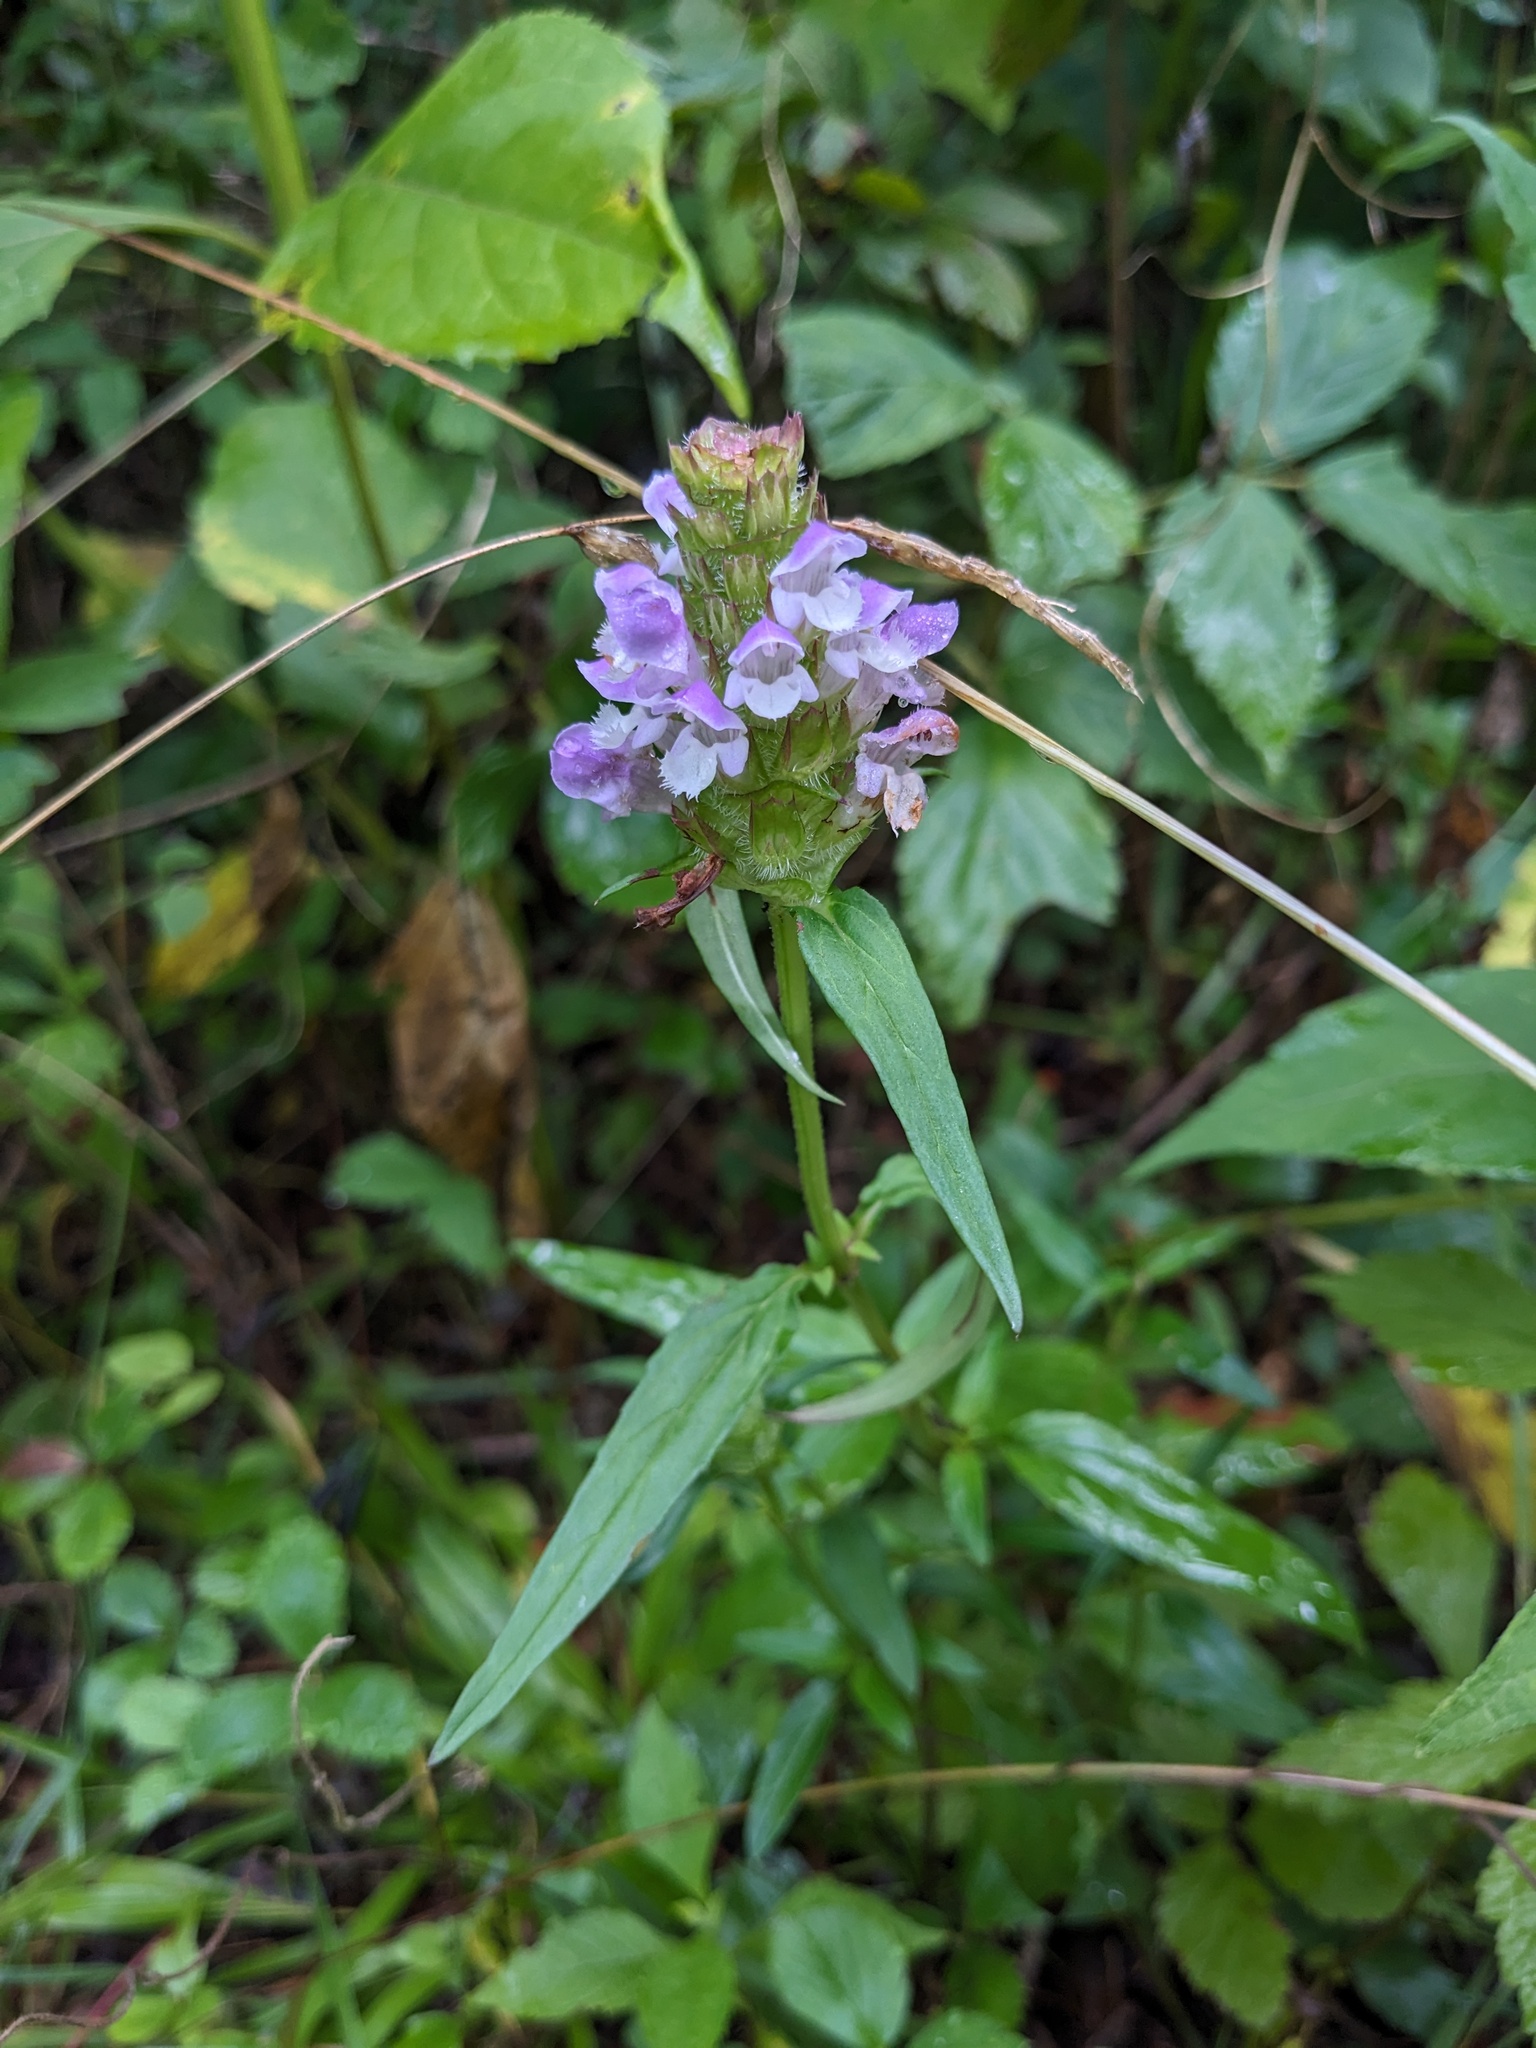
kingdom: Plantae
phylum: Tracheophyta
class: Magnoliopsida
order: Lamiales
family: Lamiaceae
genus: Prunella
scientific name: Prunella vulgaris
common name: Heal-all
